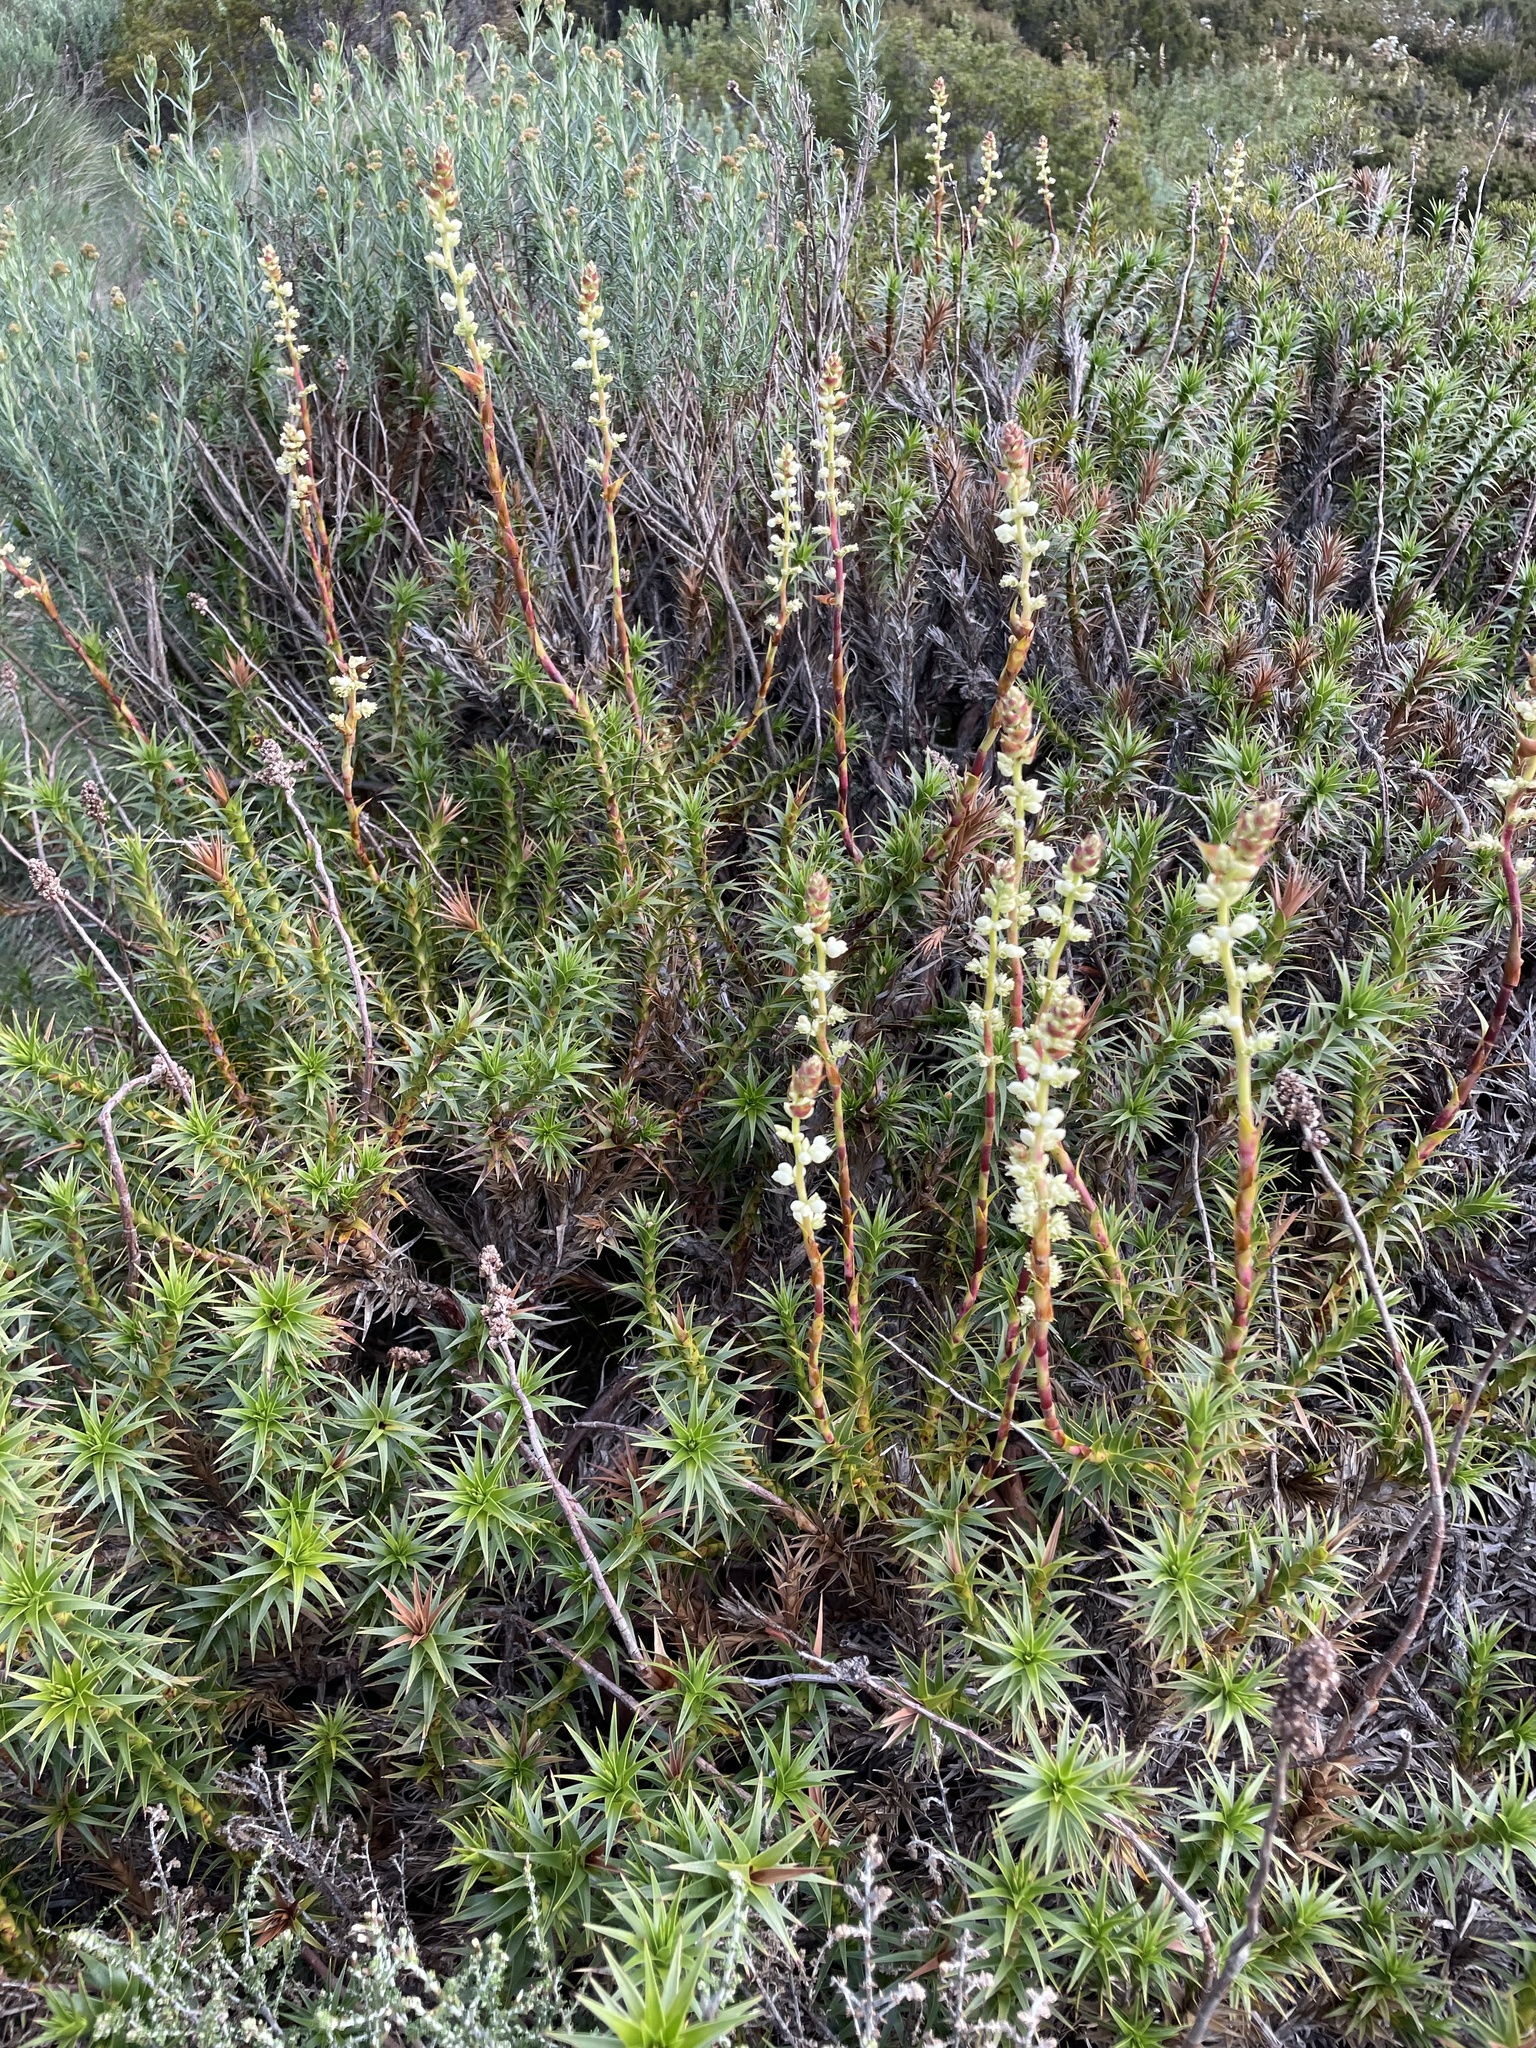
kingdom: Plantae
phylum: Tracheophyta
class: Magnoliopsida
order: Ericales
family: Ericaceae
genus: Dracophyllum
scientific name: Dracophyllum continentis
